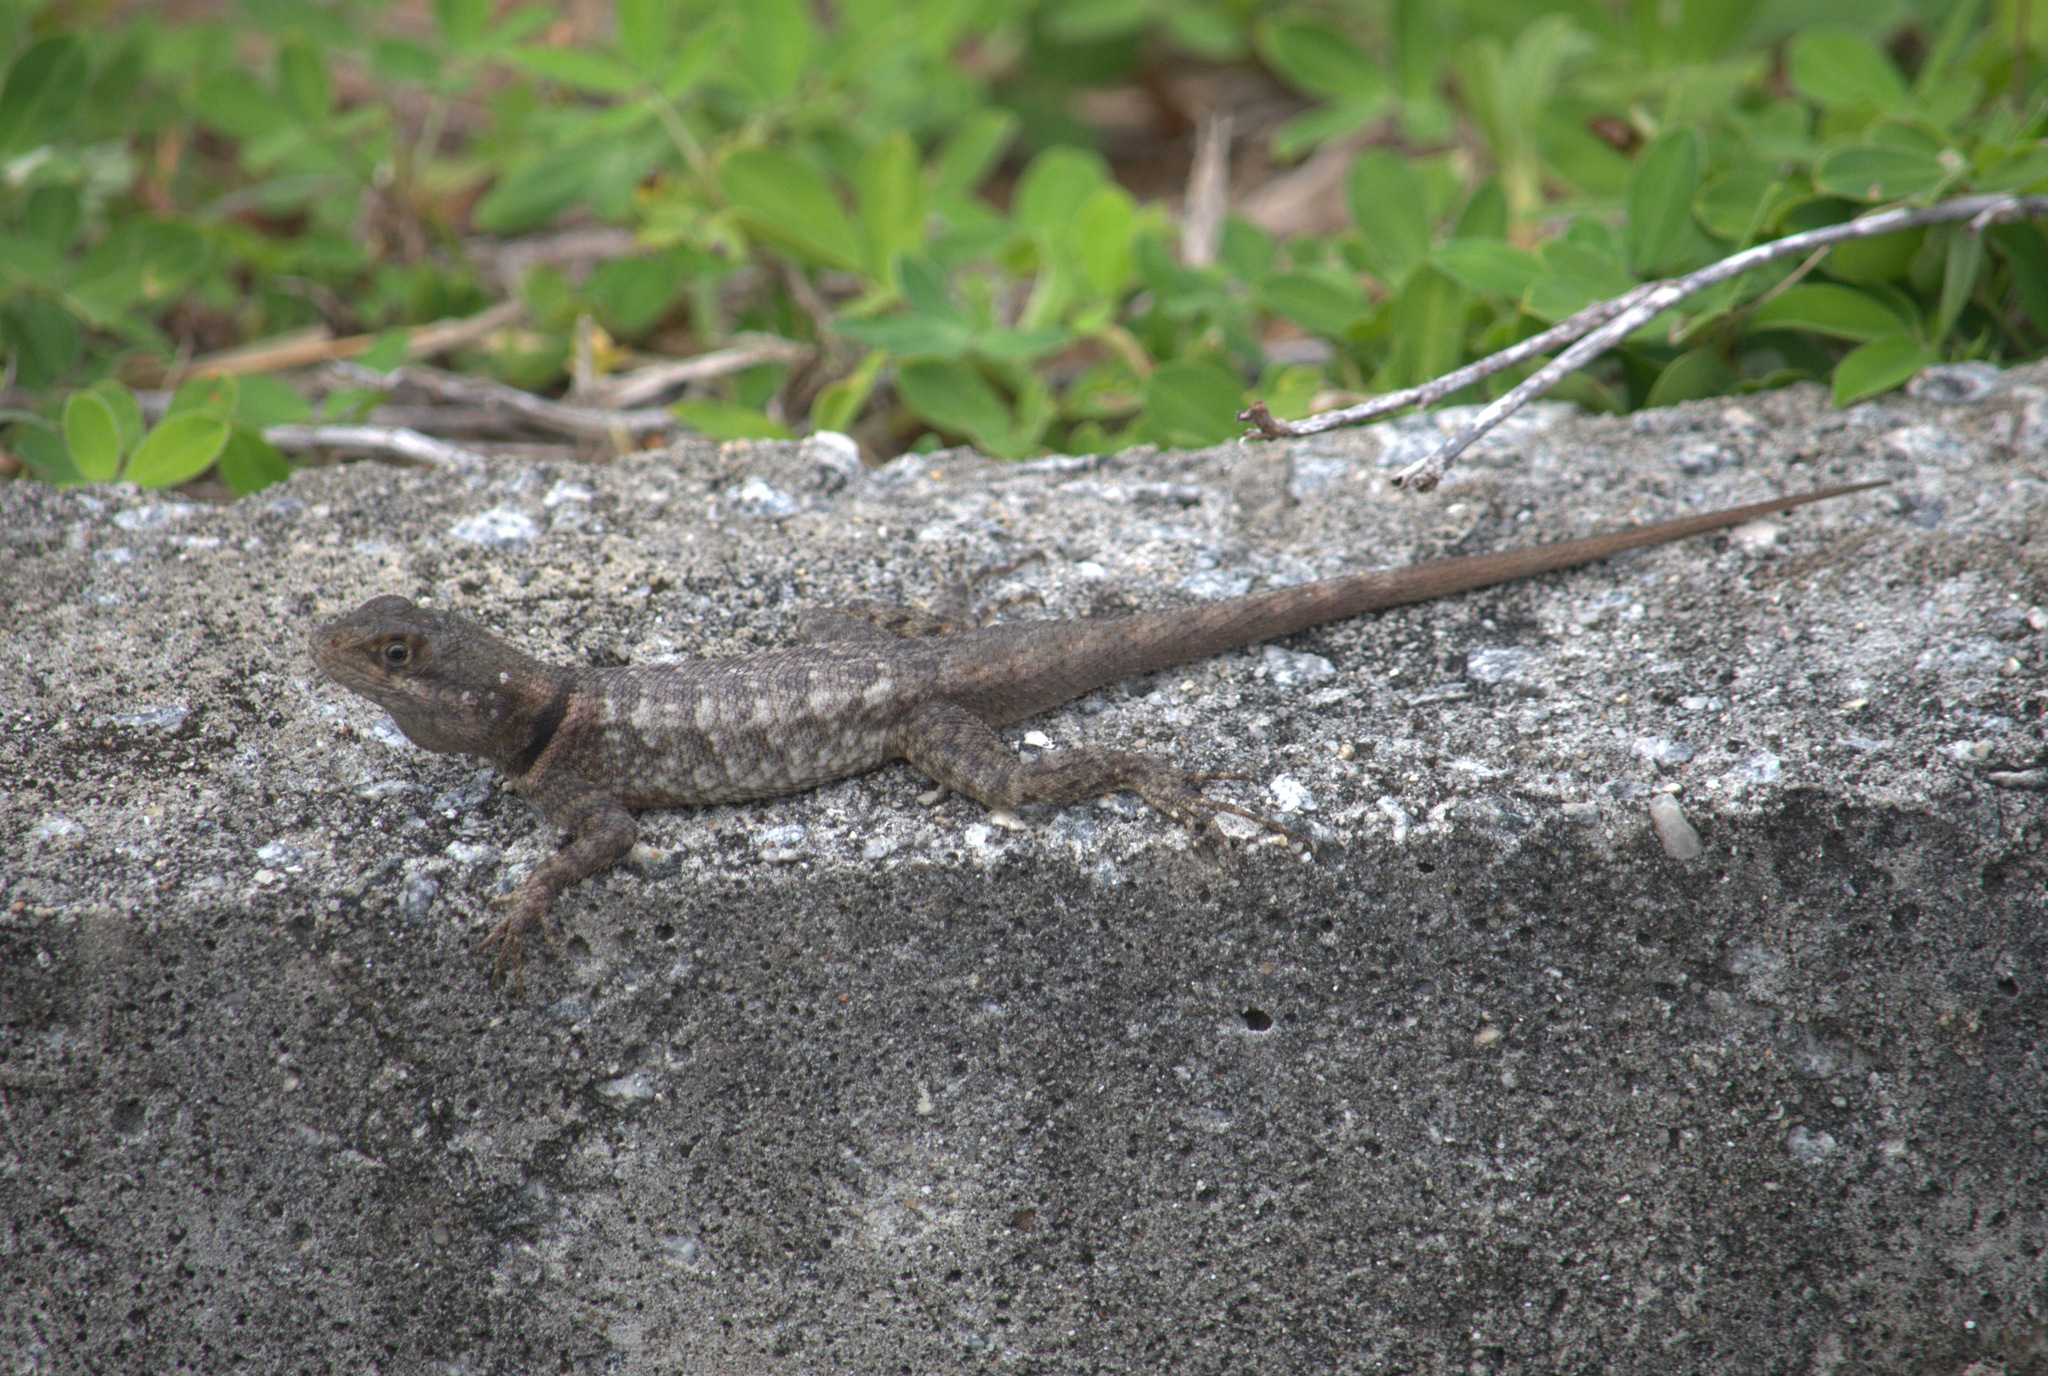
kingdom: Animalia
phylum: Chordata
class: Squamata
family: Tropiduridae
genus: Tropidurus
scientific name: Tropidurus hispidus
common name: Peters' lava lizard
